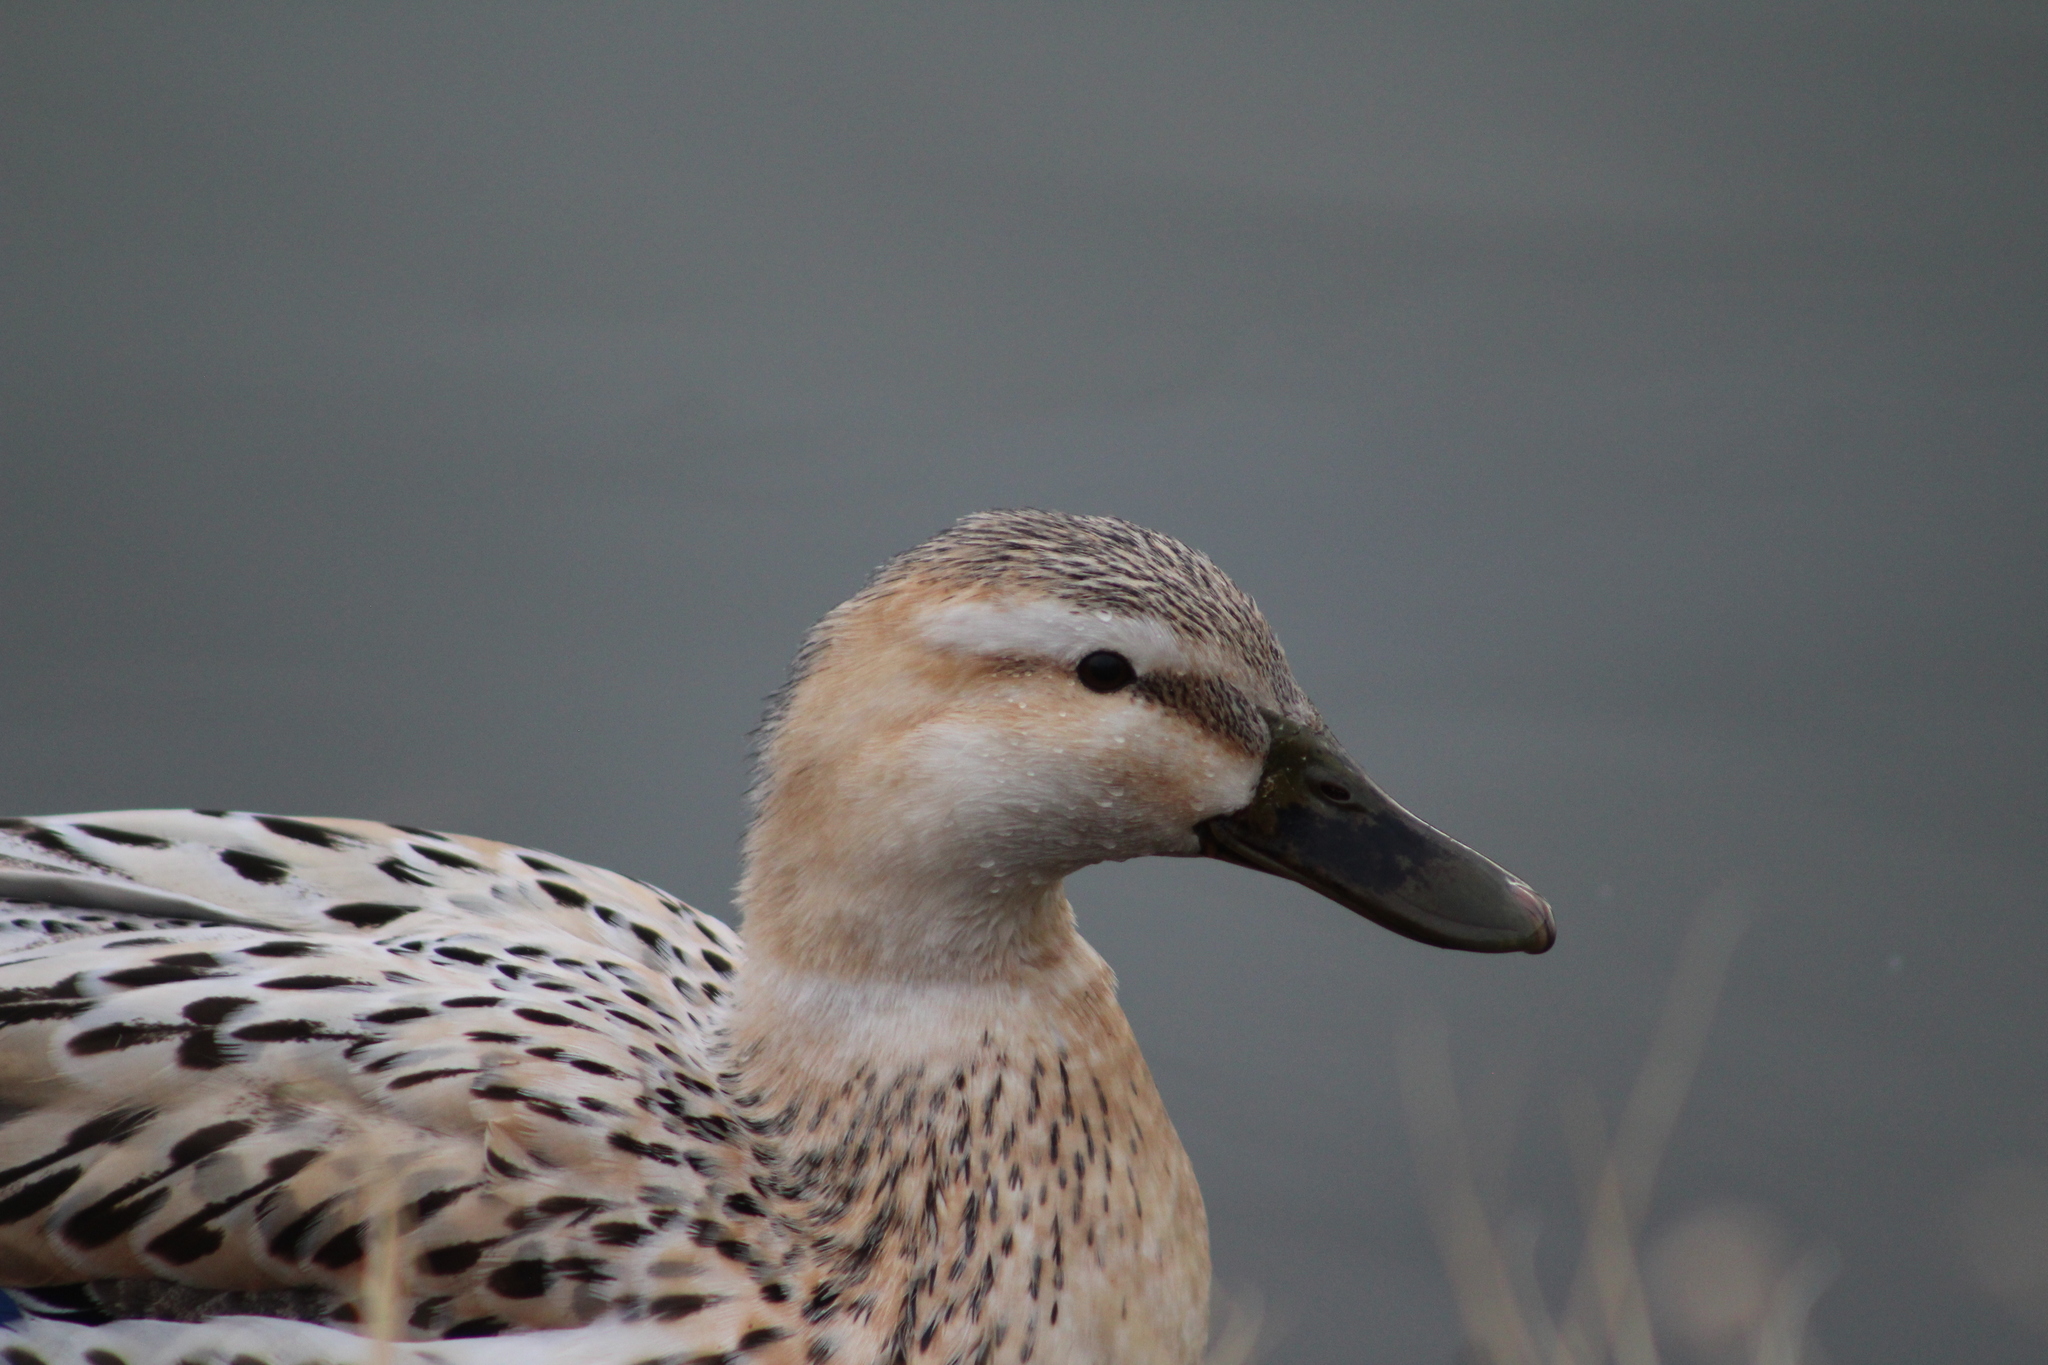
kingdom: Animalia
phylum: Chordata
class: Aves
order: Anseriformes
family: Anatidae
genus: Anas
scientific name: Anas platyrhynchos
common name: Mallard
